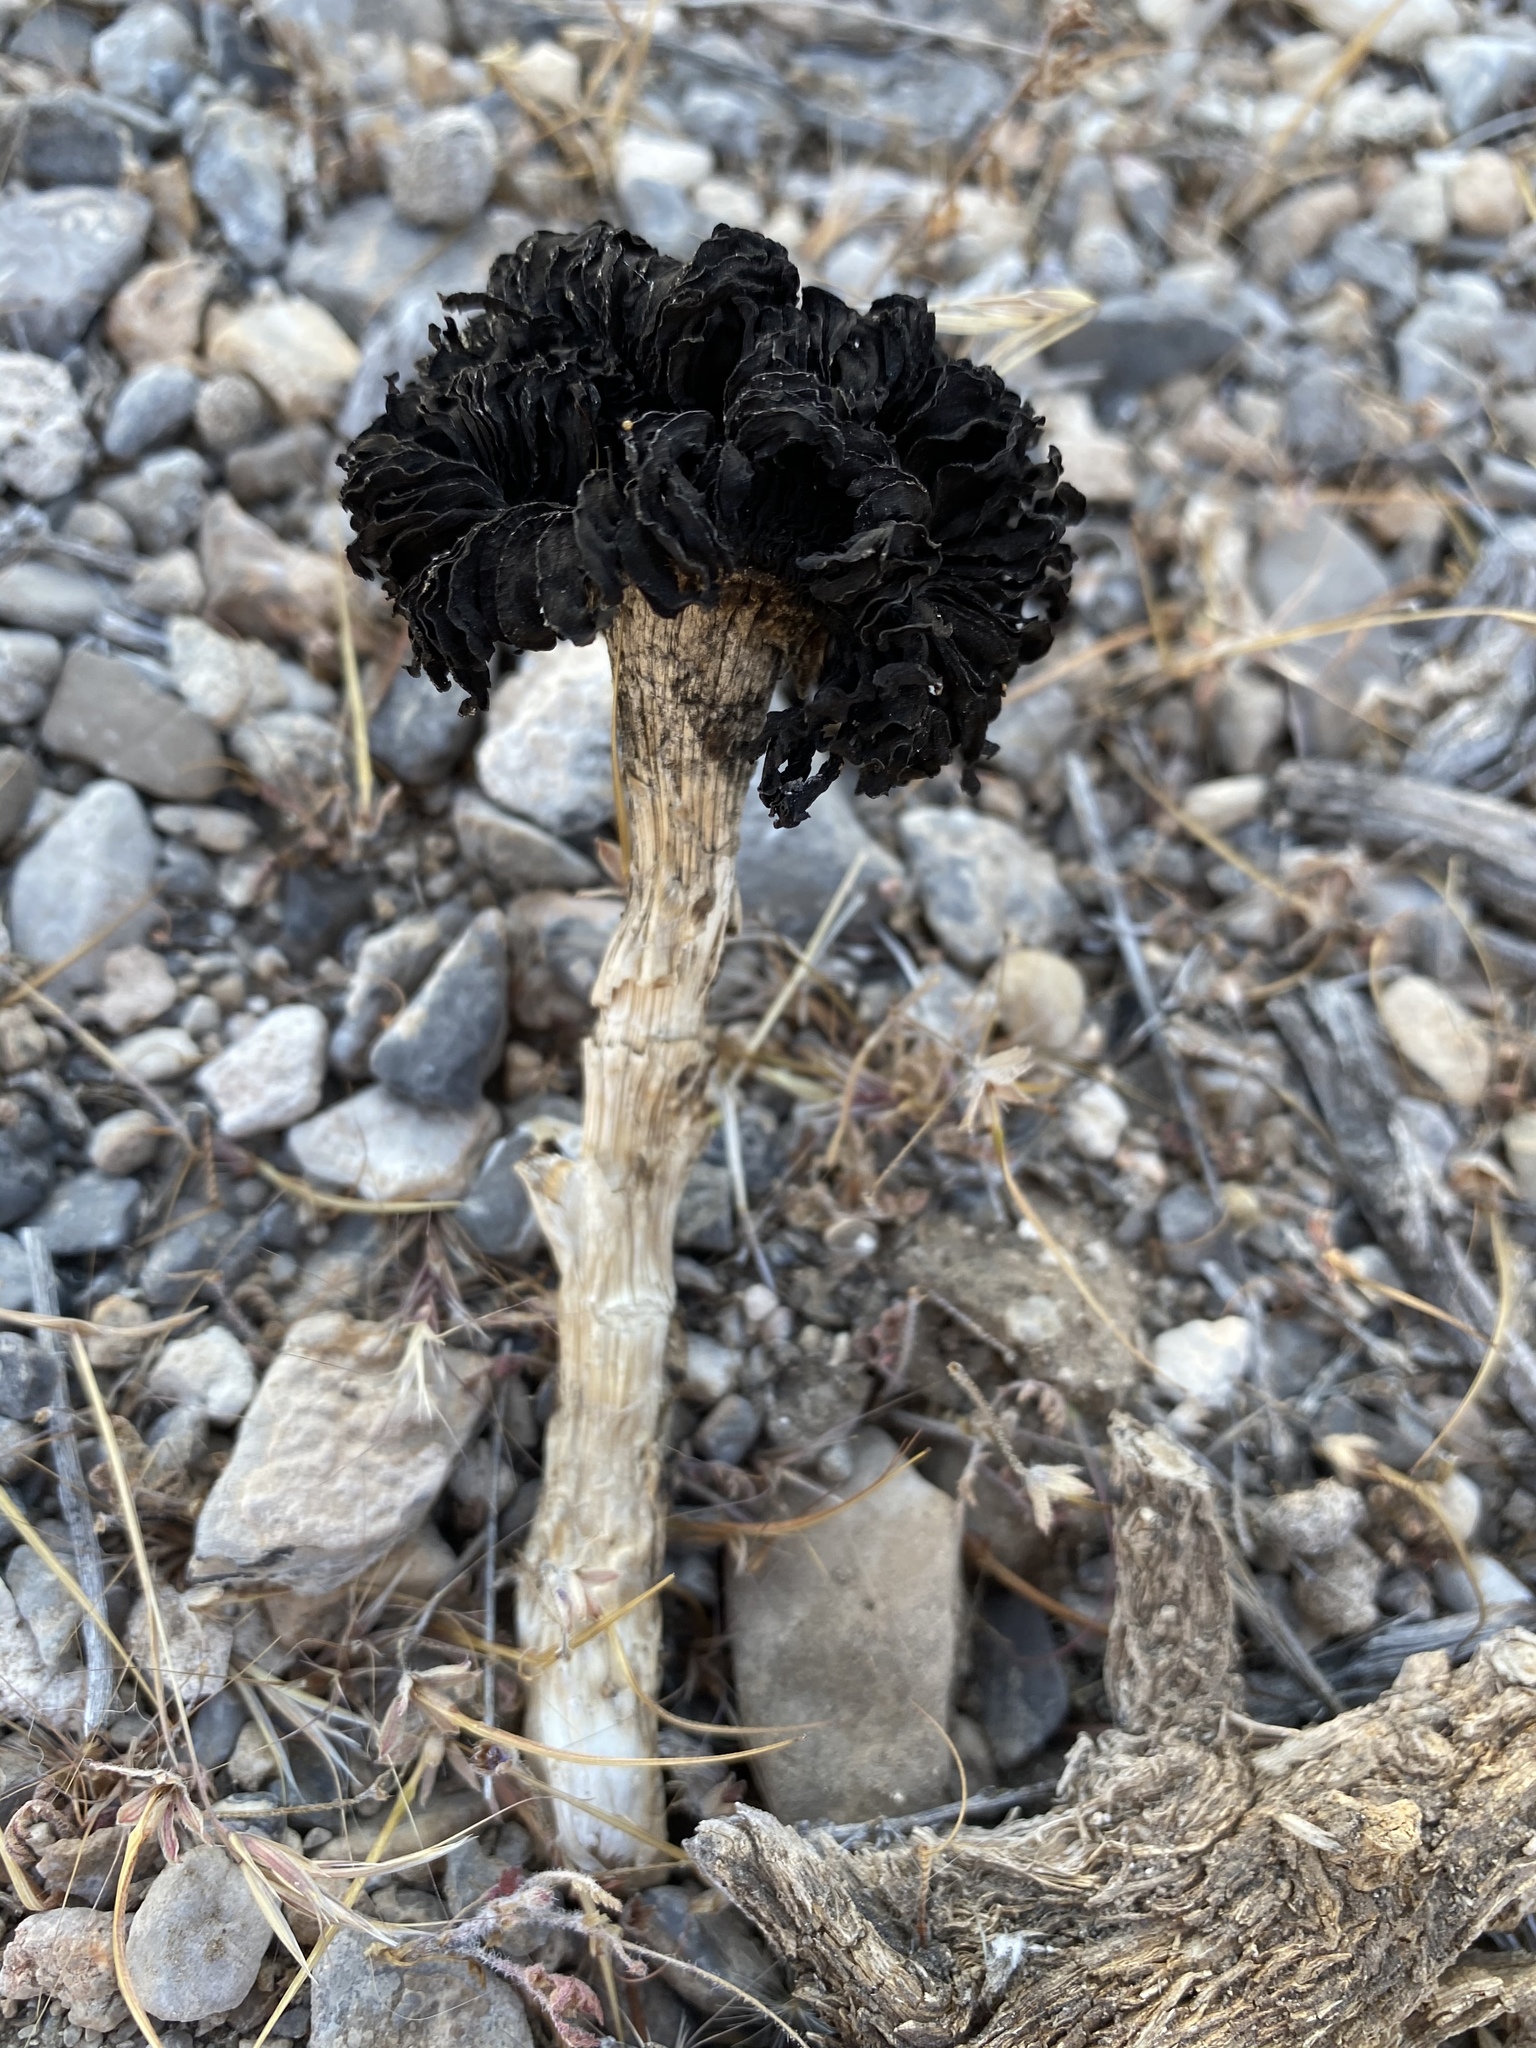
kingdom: Fungi
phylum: Basidiomycota
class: Agaricomycetes
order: Agaricales
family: Agaricaceae
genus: Montagnea
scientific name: Montagnea arenaria
